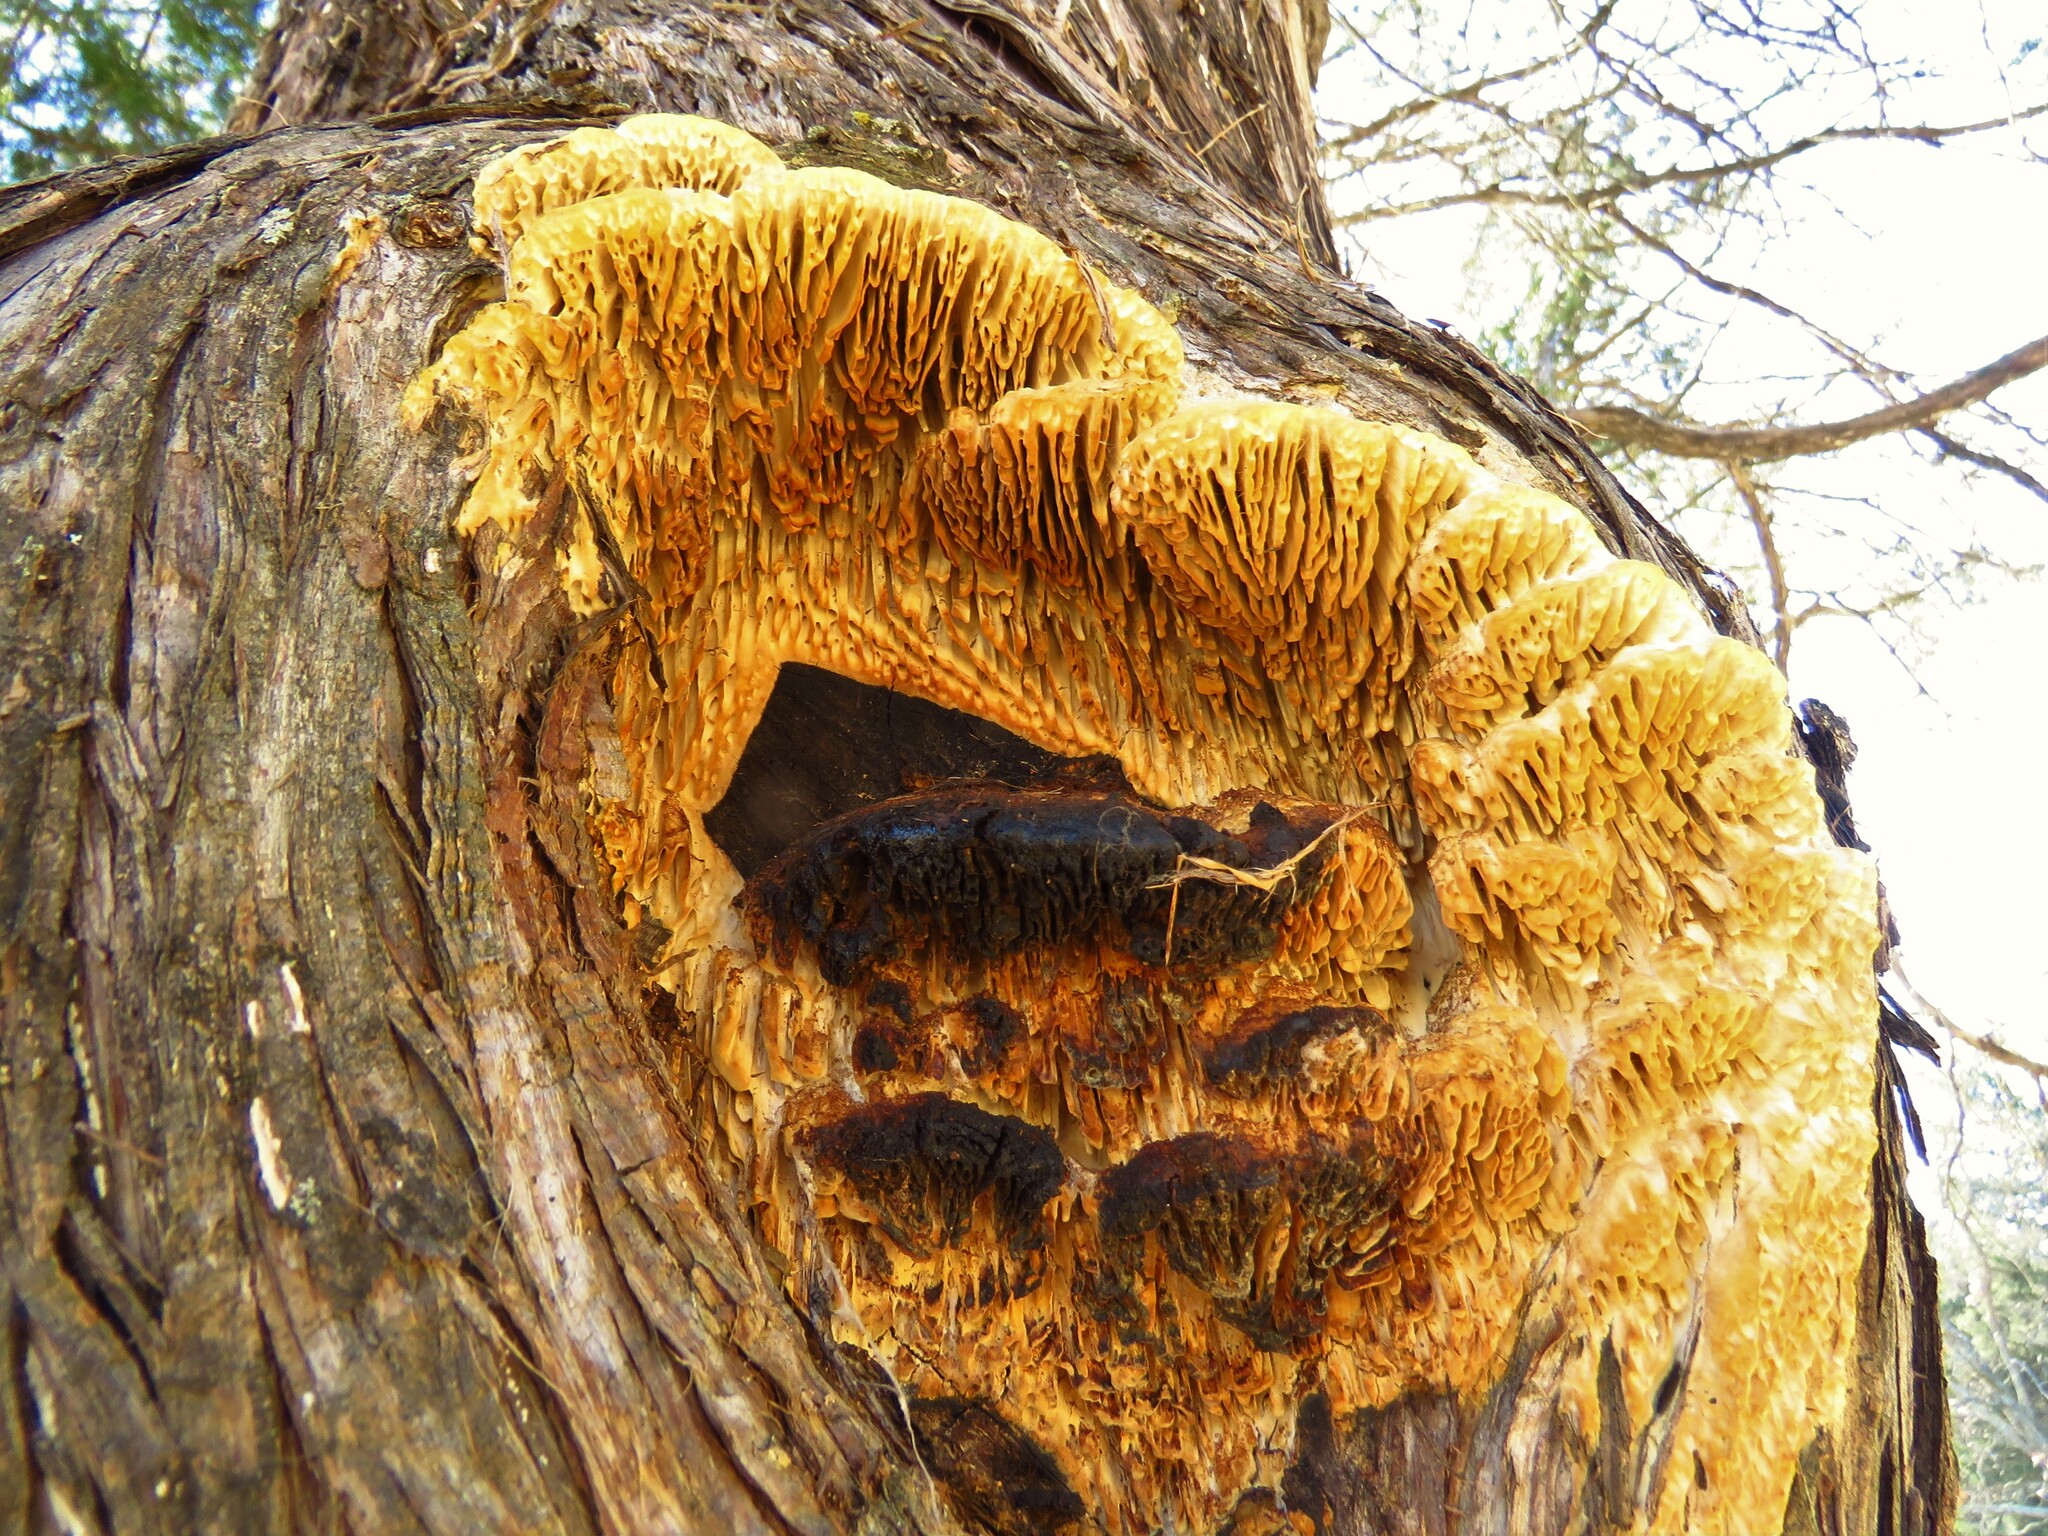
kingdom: Fungi
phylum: Basidiomycota
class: Agaricomycetes
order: Polyporales
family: Fomitopsidaceae
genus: Fomitopsis
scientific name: Fomitopsis
